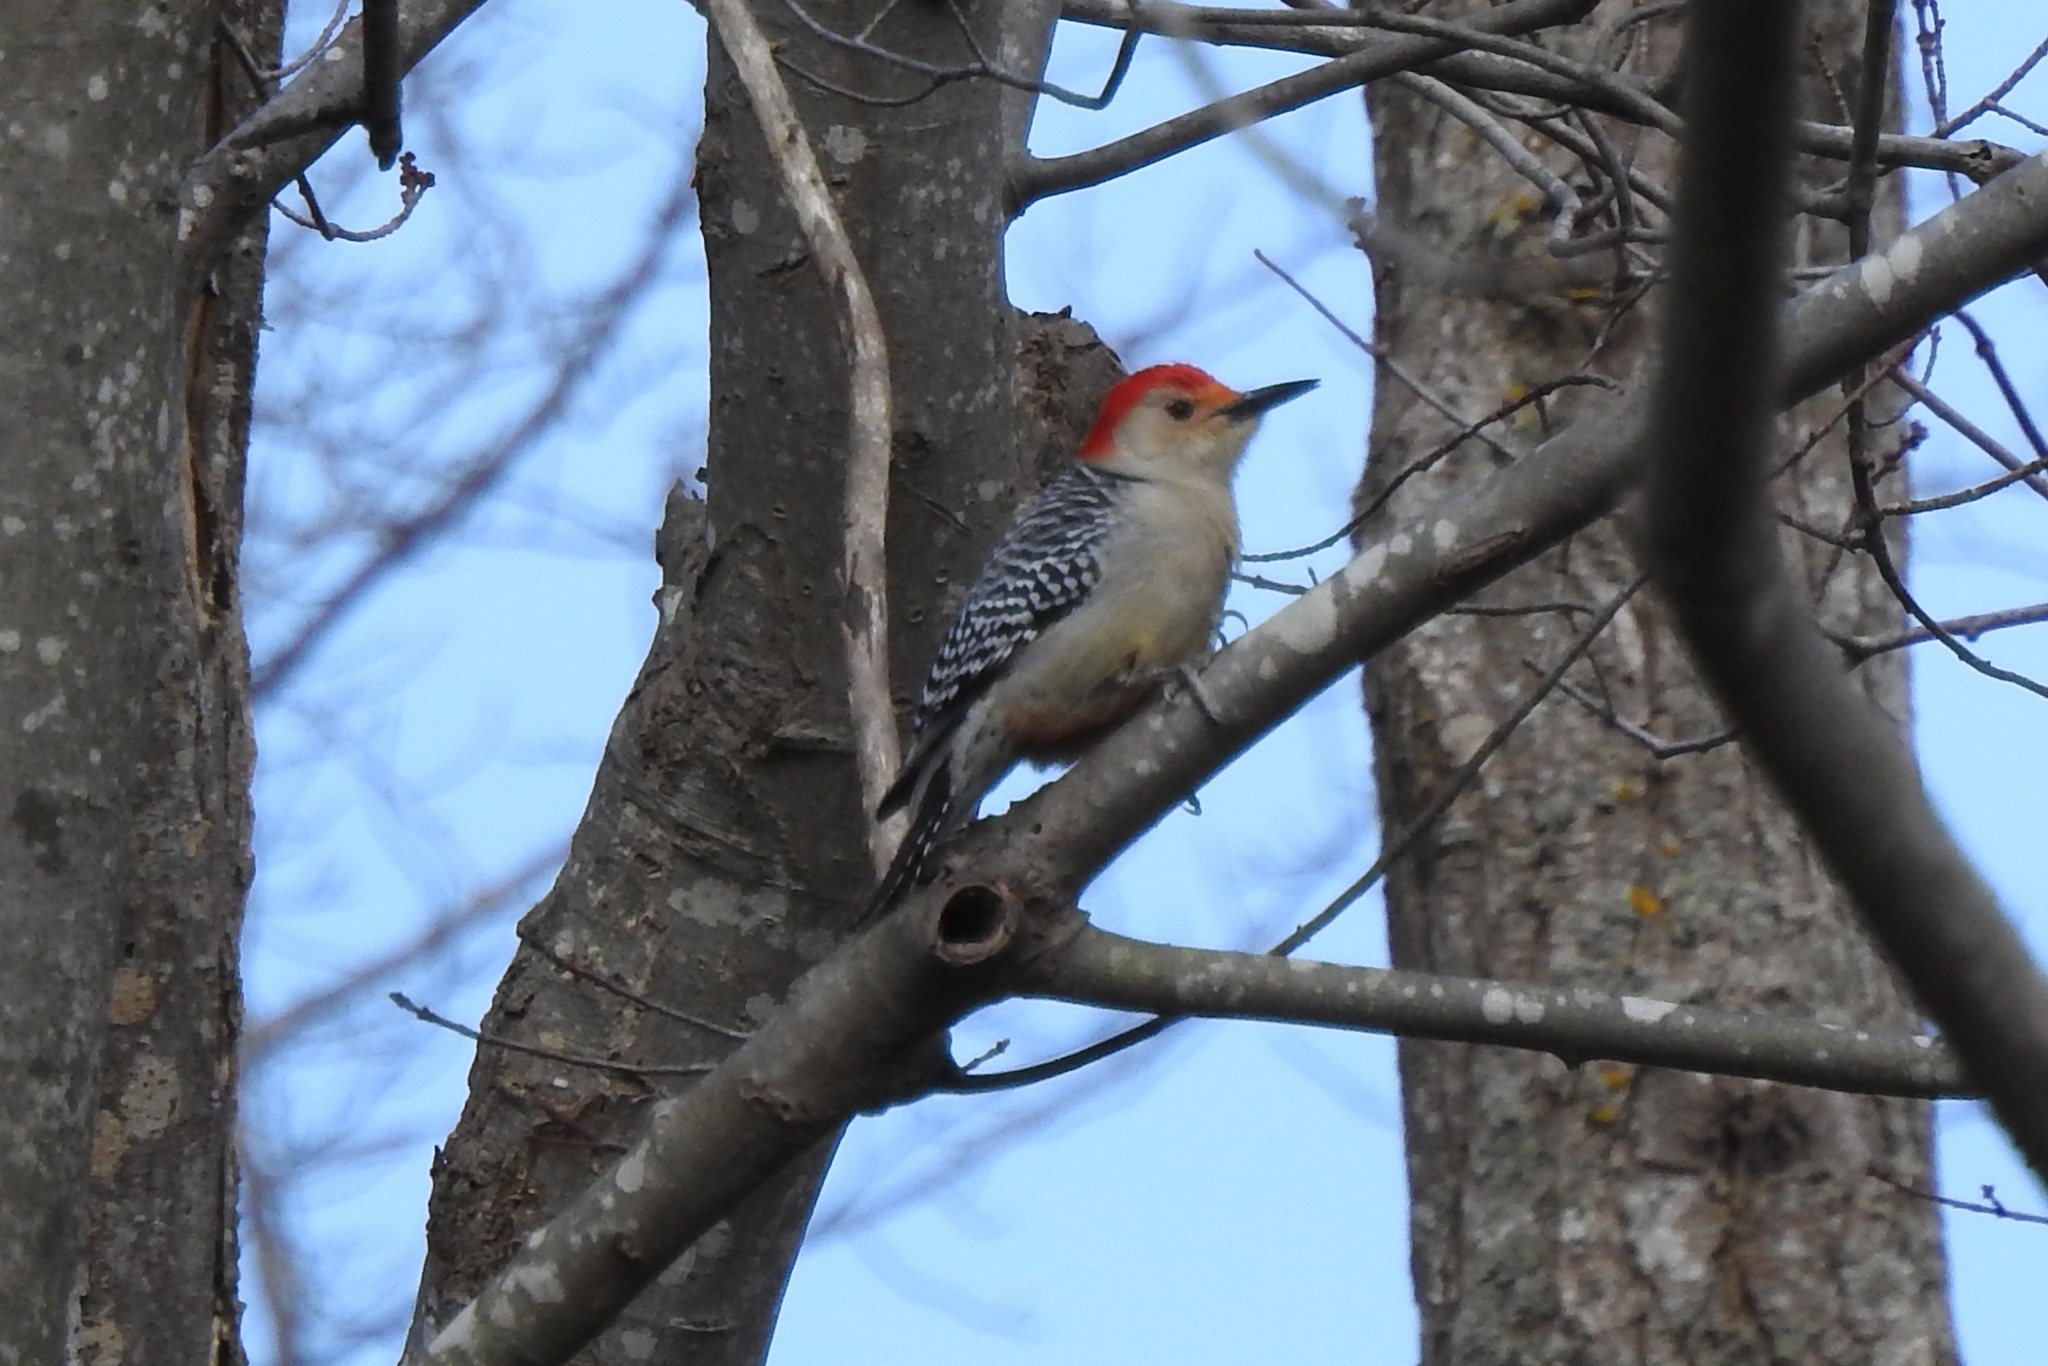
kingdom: Animalia
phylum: Chordata
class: Aves
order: Piciformes
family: Picidae
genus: Melanerpes
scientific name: Melanerpes carolinus
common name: Red-bellied woodpecker
